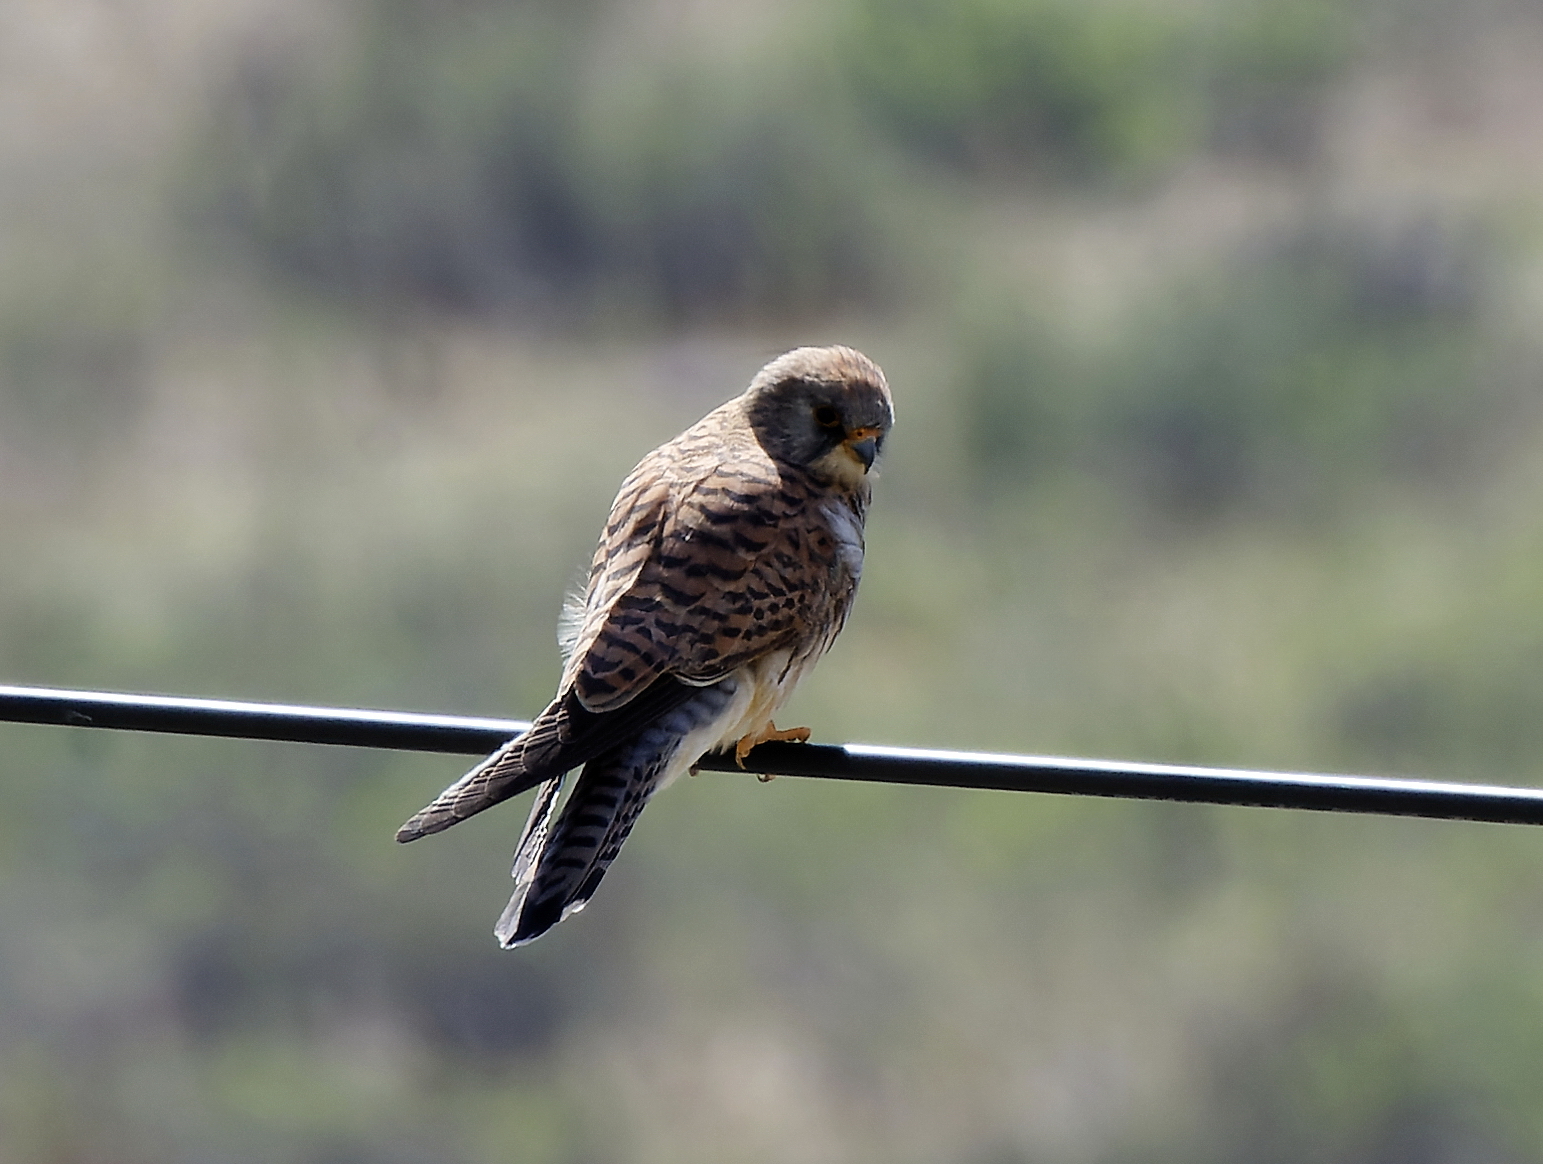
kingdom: Animalia
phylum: Chordata
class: Aves
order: Falconiformes
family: Falconidae
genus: Falco
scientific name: Falco tinnunculus
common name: Common kestrel
